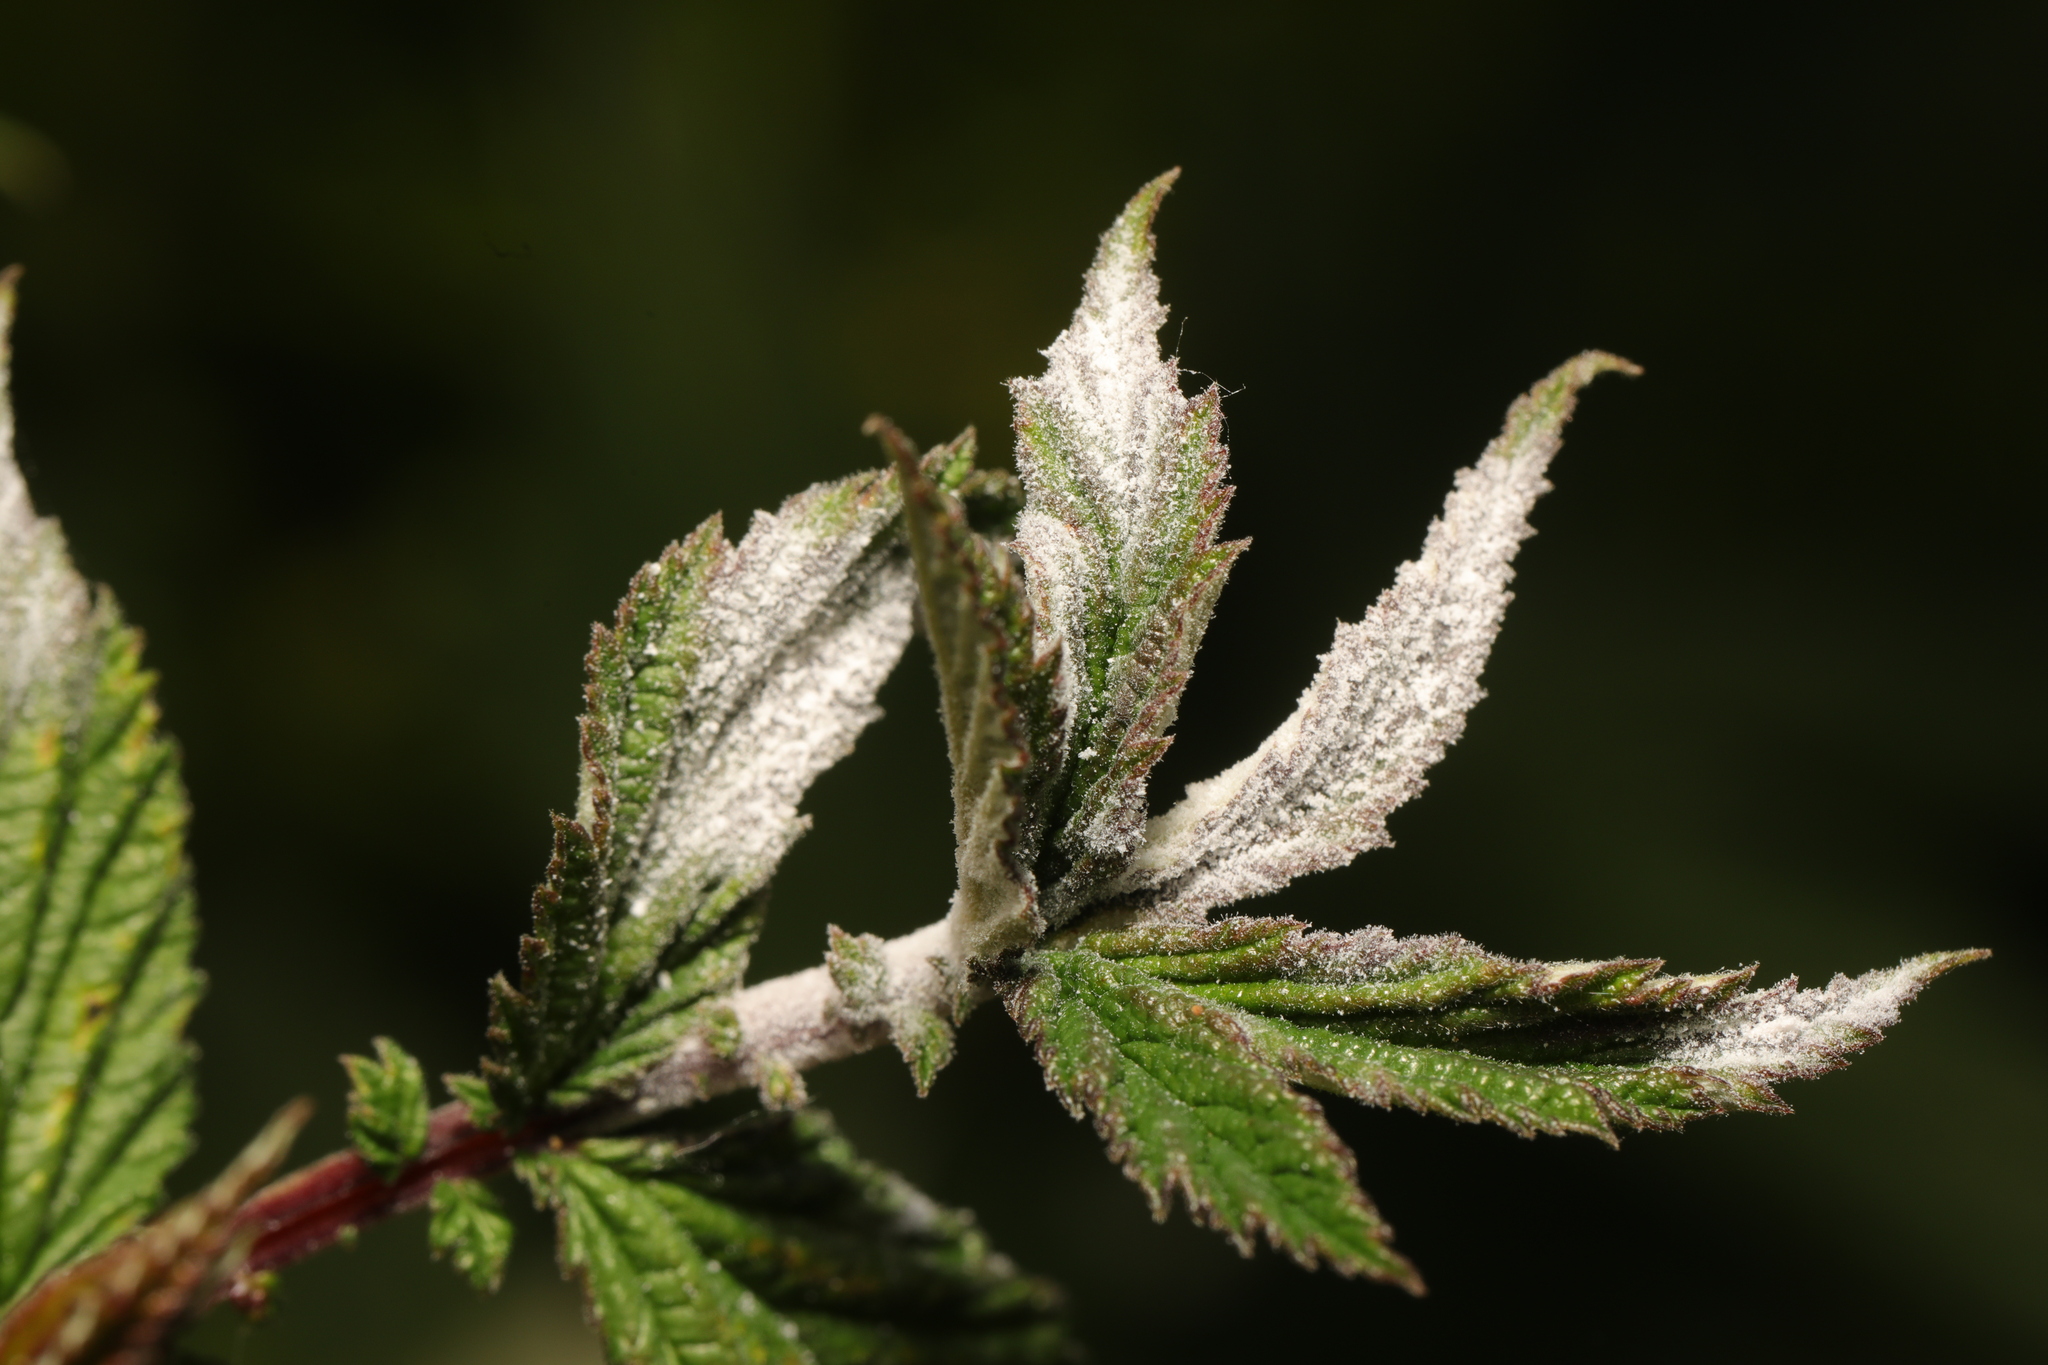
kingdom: Fungi
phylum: Ascomycota
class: Leotiomycetes
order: Helotiales
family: Erysiphaceae
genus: Podosphaera
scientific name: Podosphaera filipendulae
